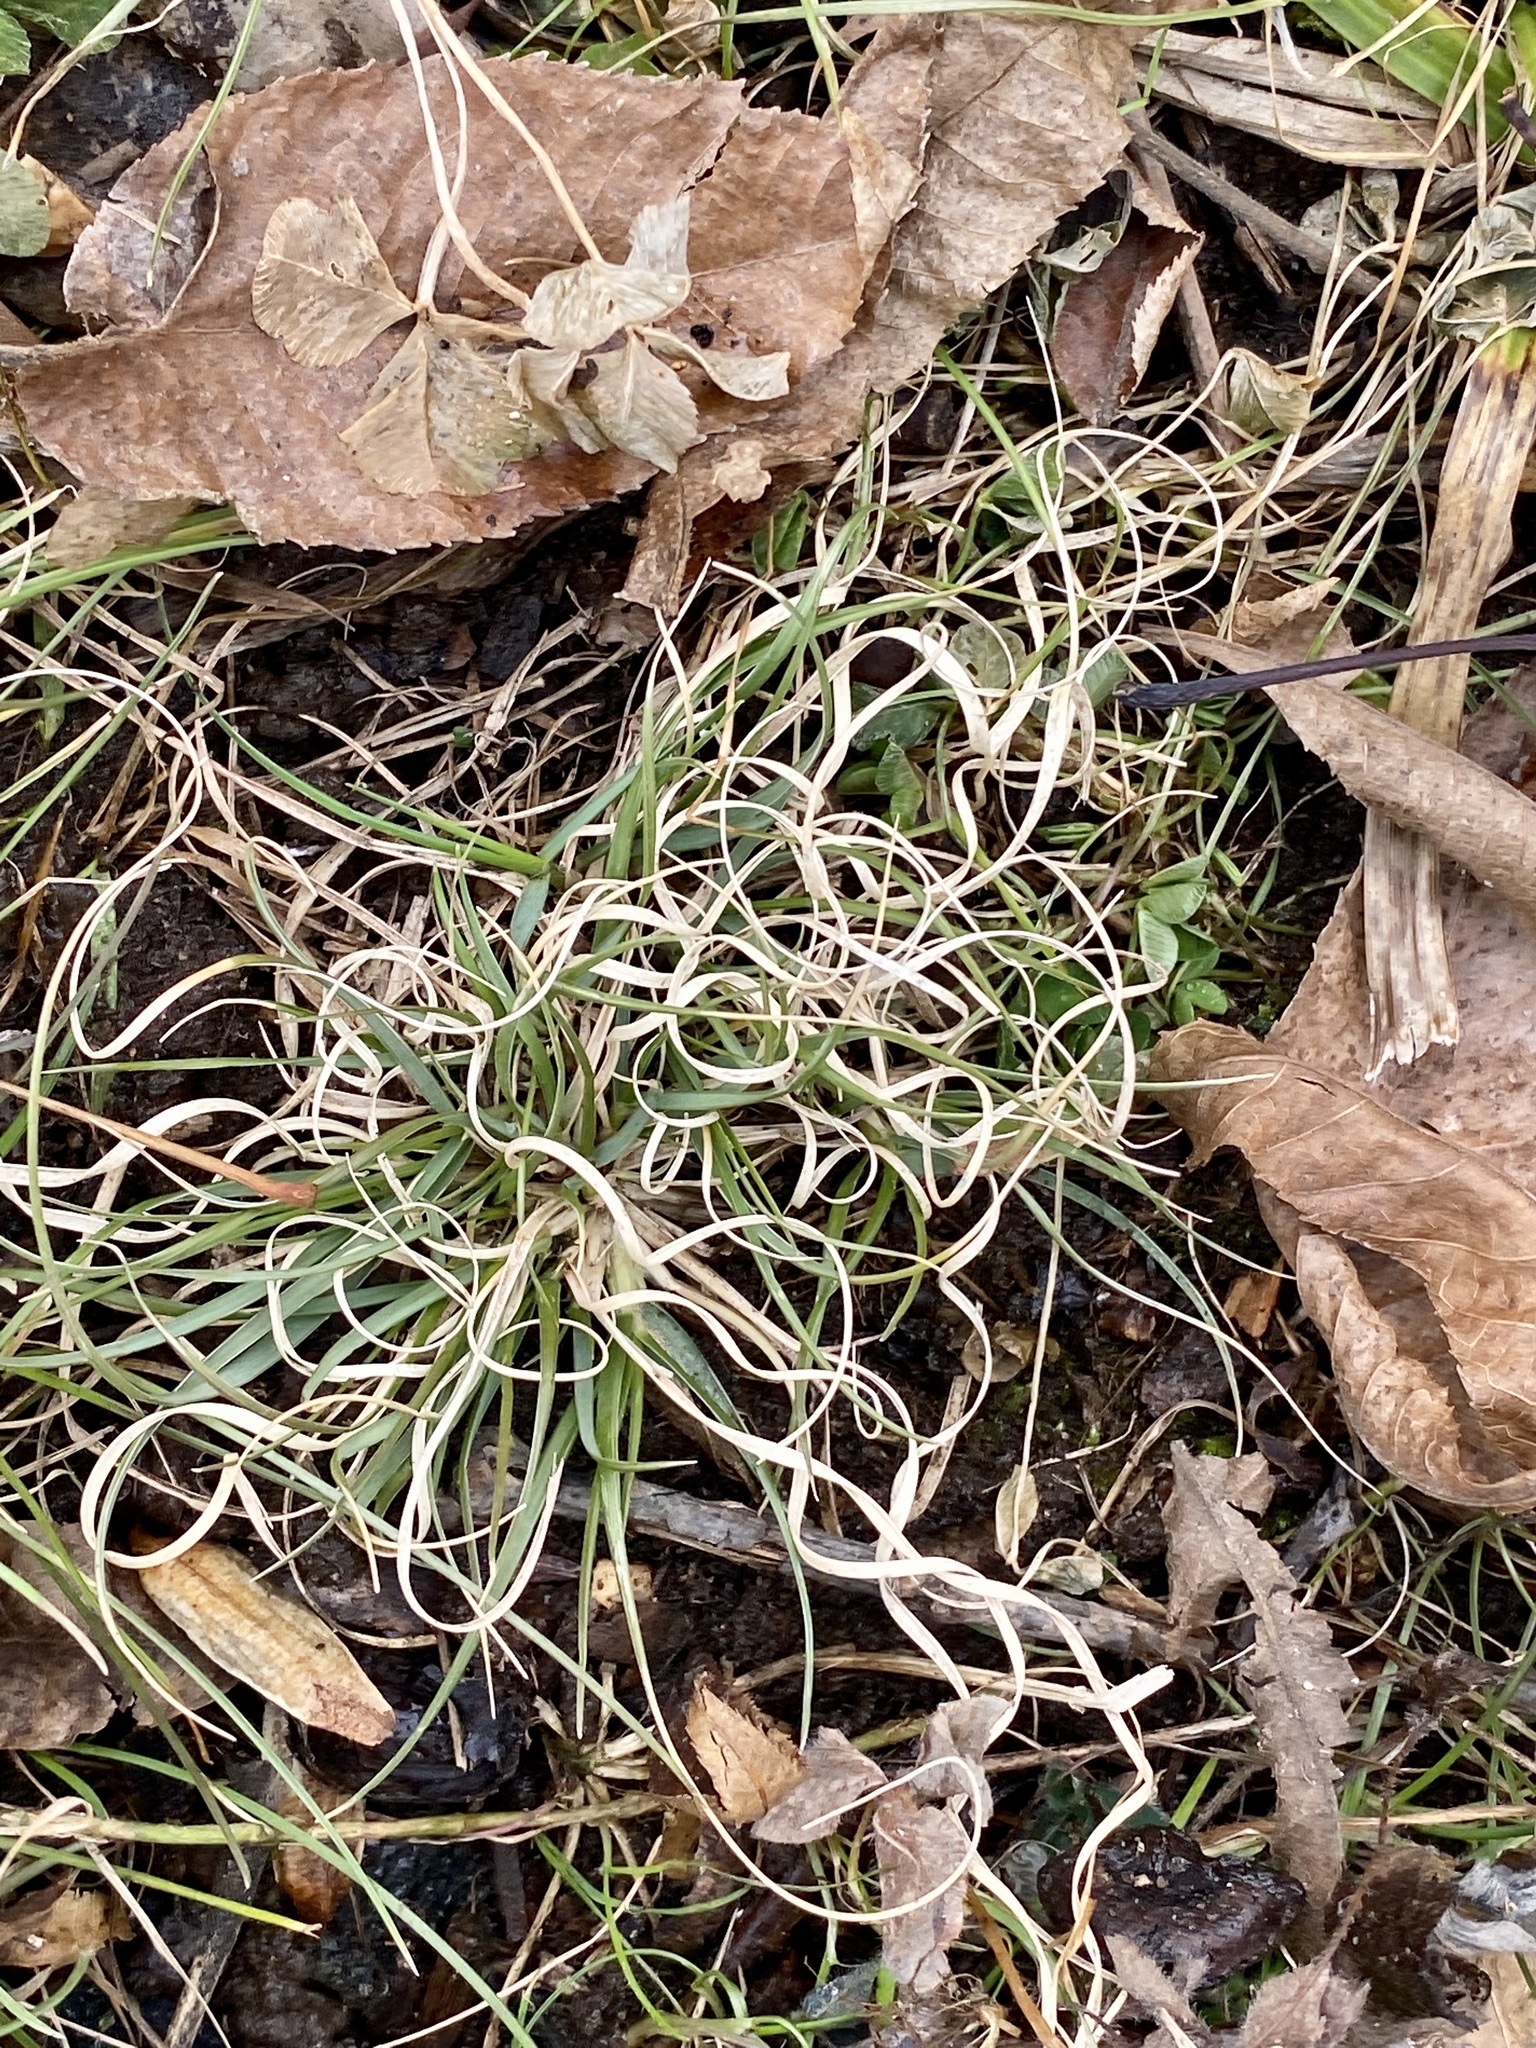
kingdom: Plantae
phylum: Tracheophyta
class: Liliopsida
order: Poales
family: Poaceae
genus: Danthonia
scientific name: Danthonia spicata
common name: Common wild oatgrass
